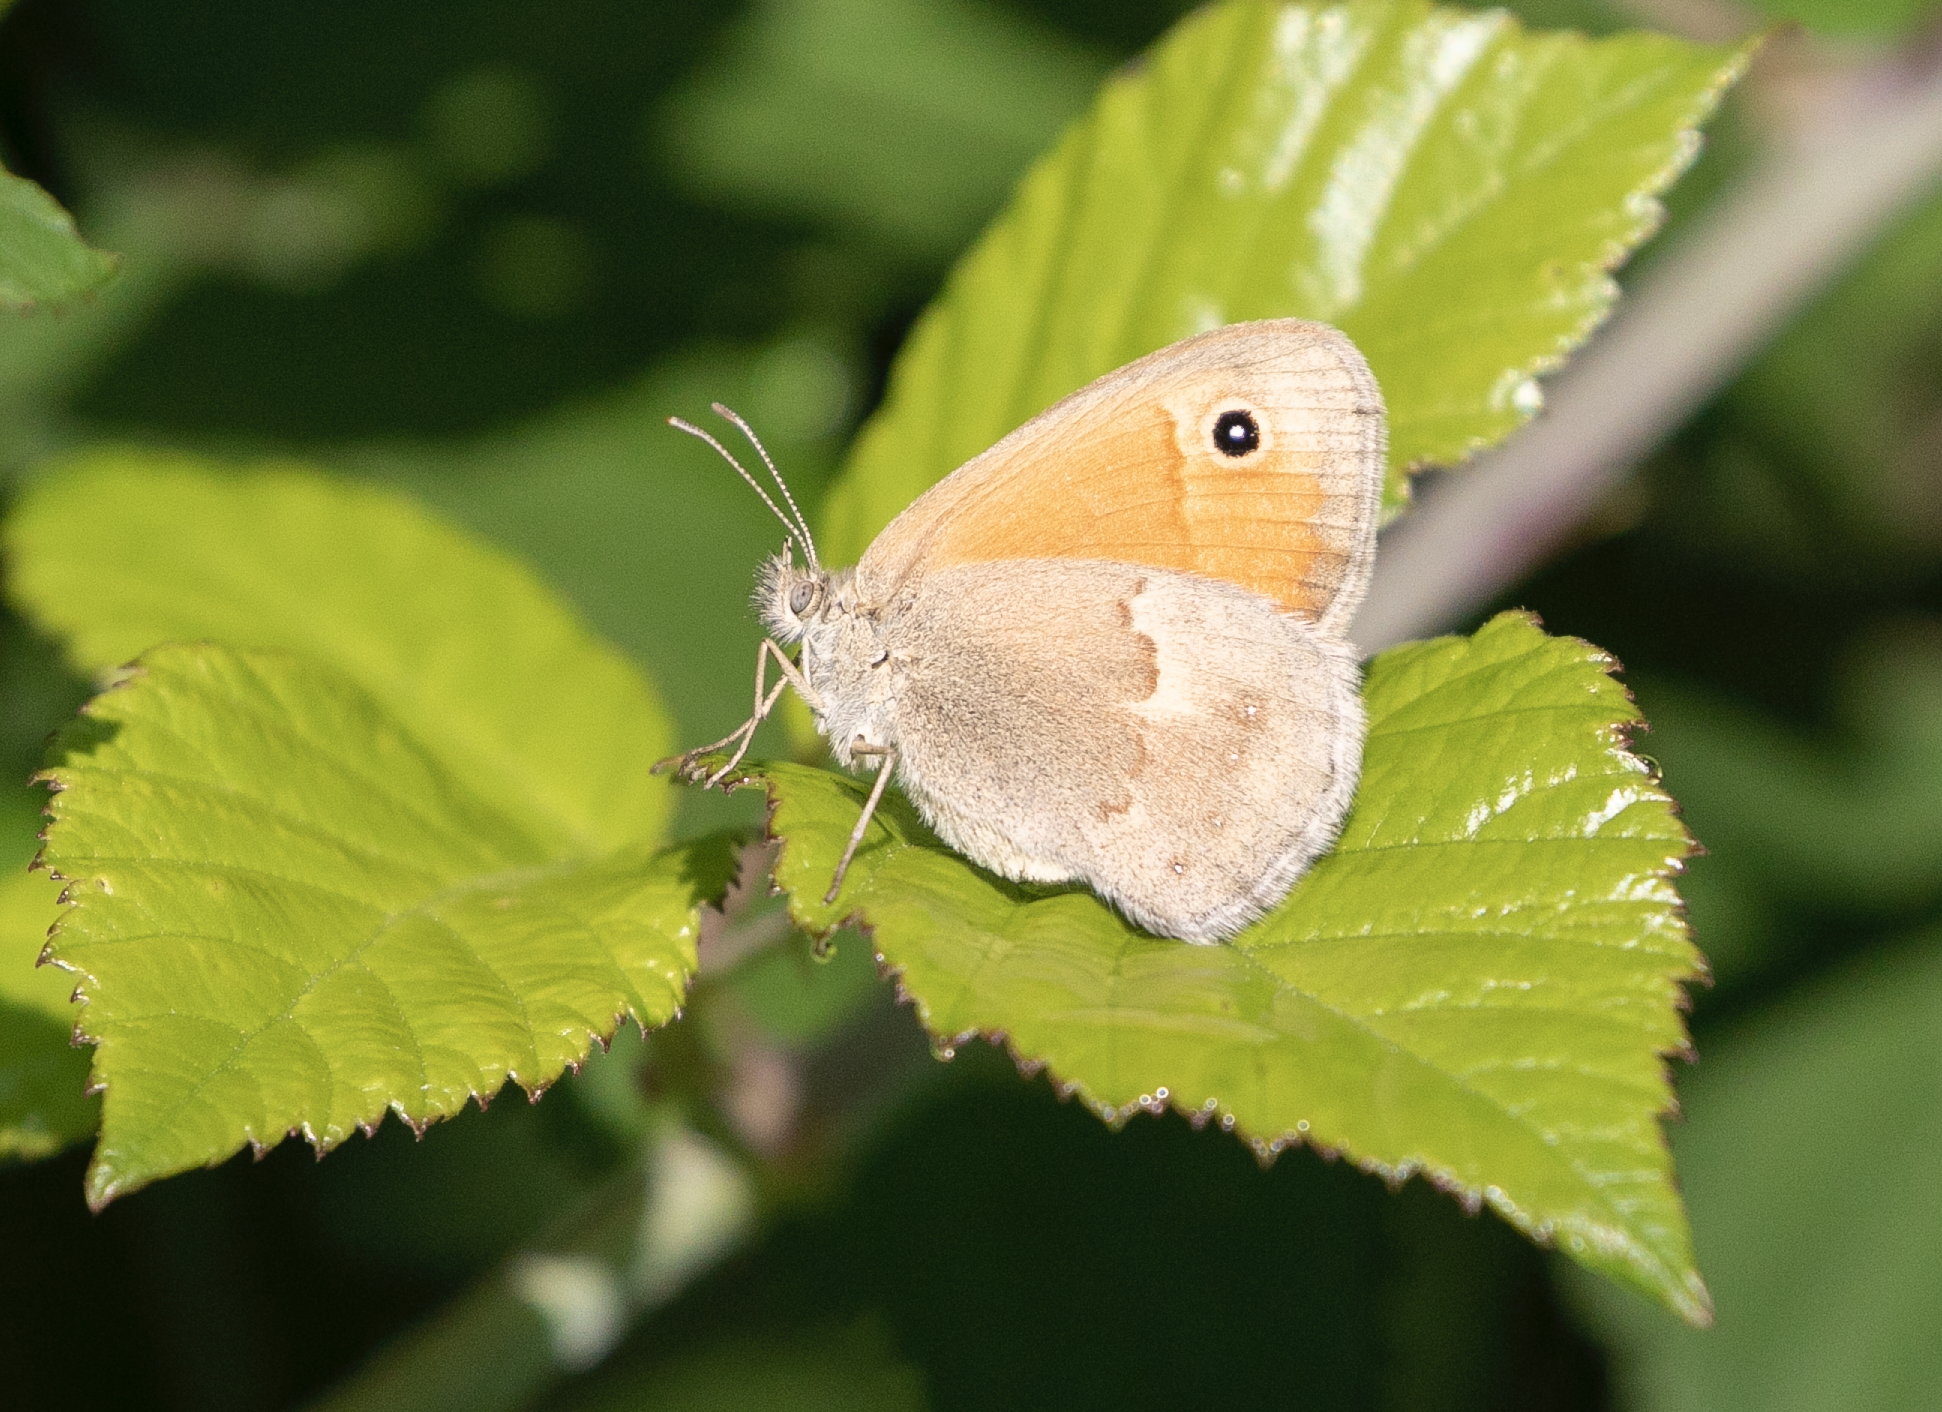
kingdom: Animalia
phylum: Arthropoda
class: Insecta
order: Lepidoptera
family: Nymphalidae
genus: Coenonympha
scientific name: Coenonympha pamphilus
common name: Small heath
